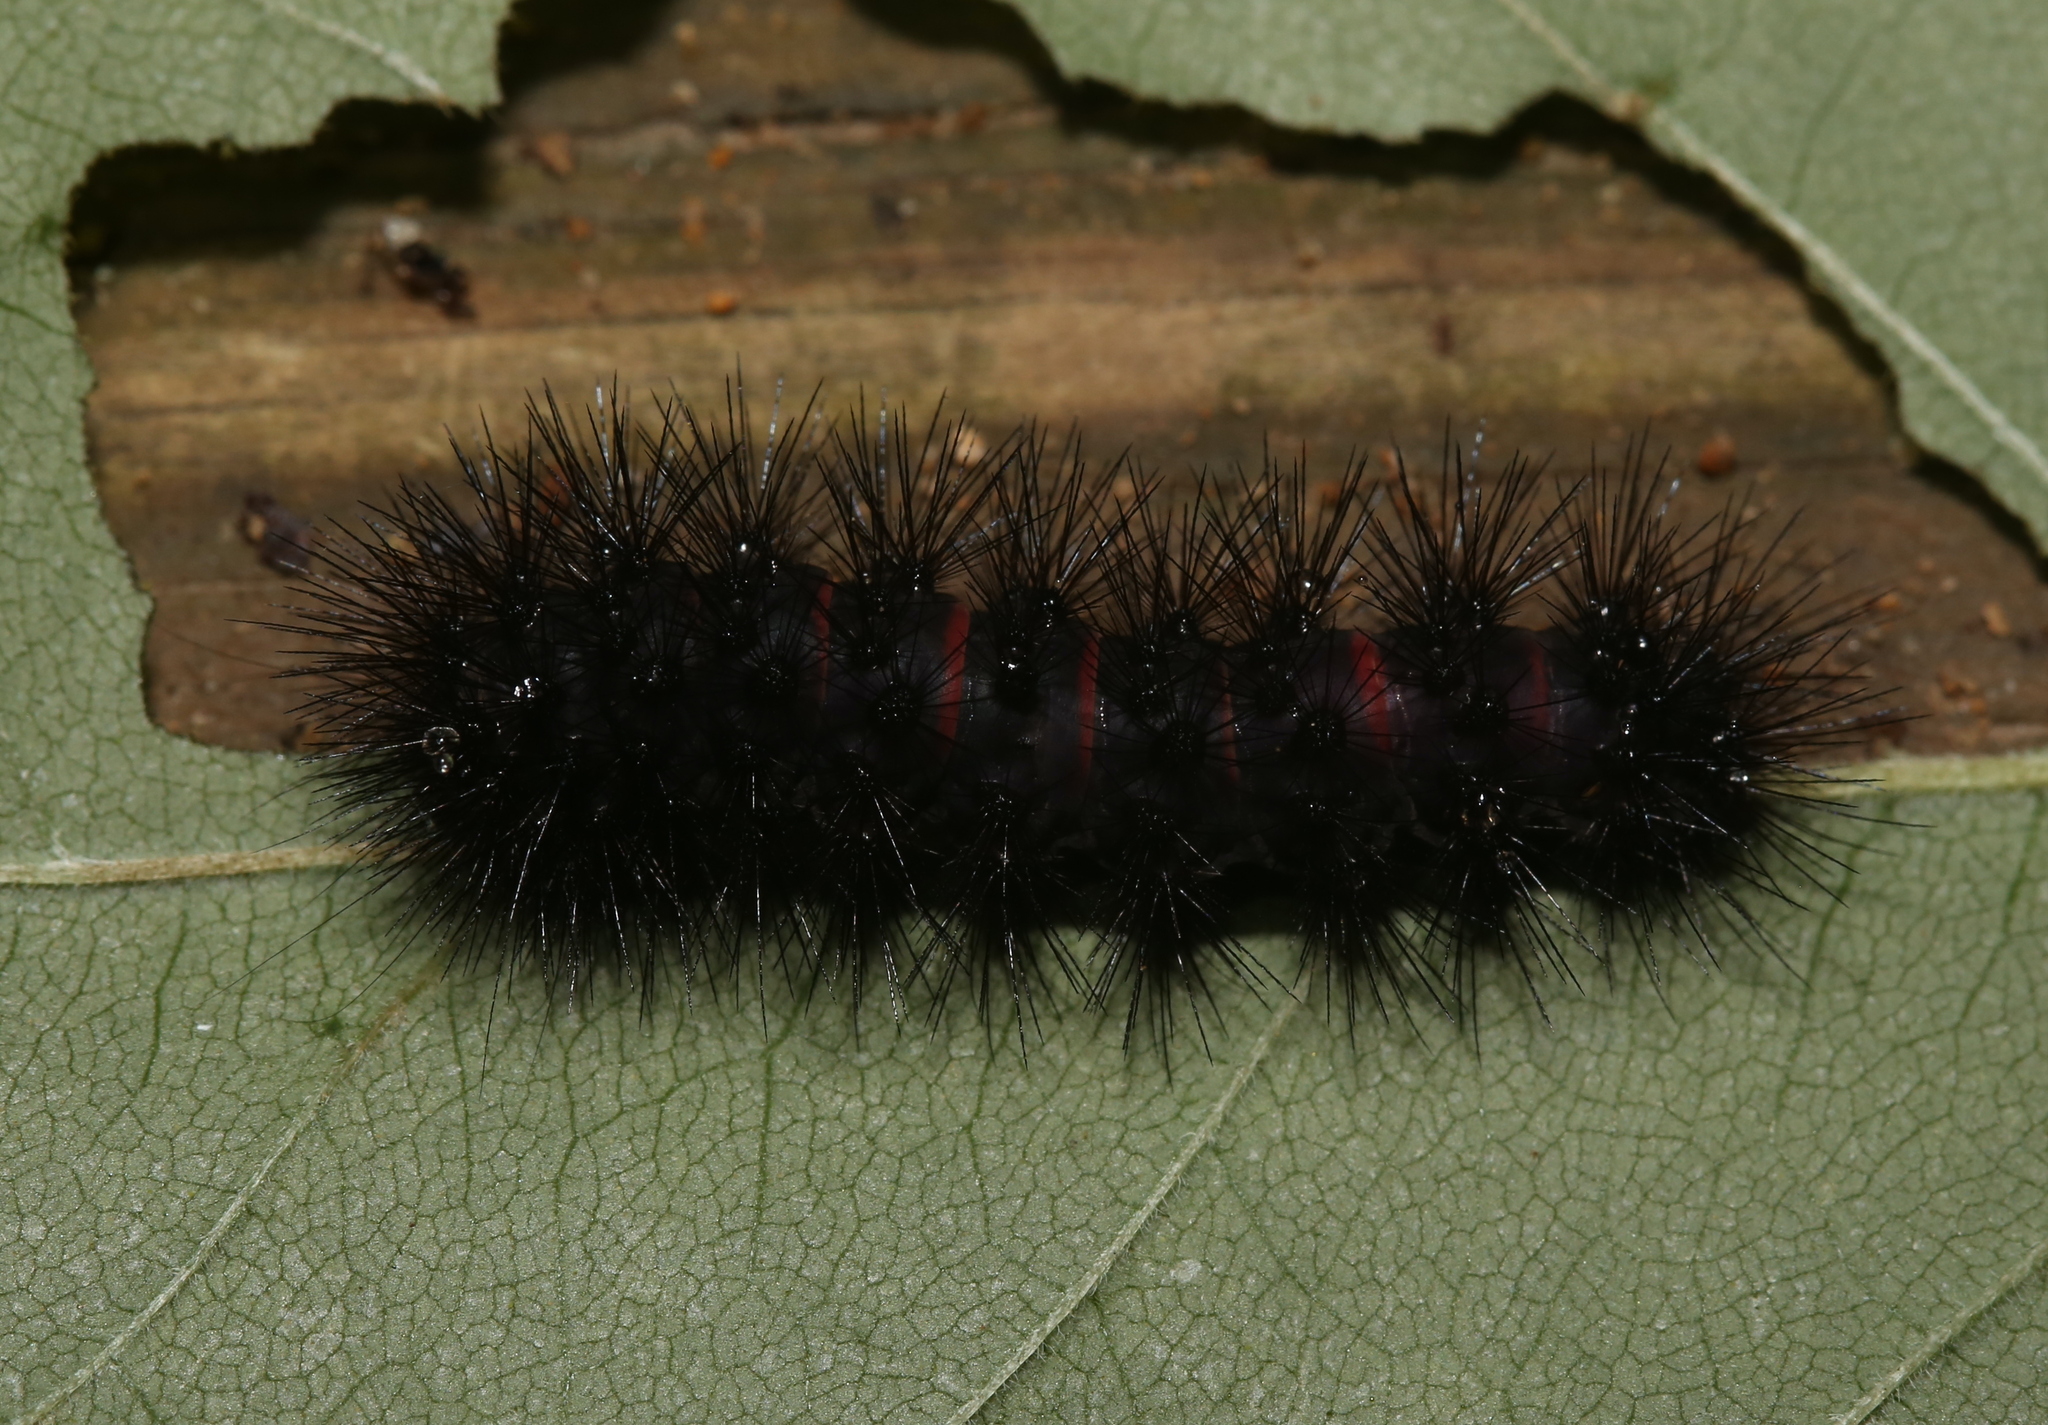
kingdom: Animalia
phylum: Arthropoda
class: Insecta
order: Lepidoptera
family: Erebidae
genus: Hypercompe
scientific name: Hypercompe scribonia
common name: Giant leopard moth
